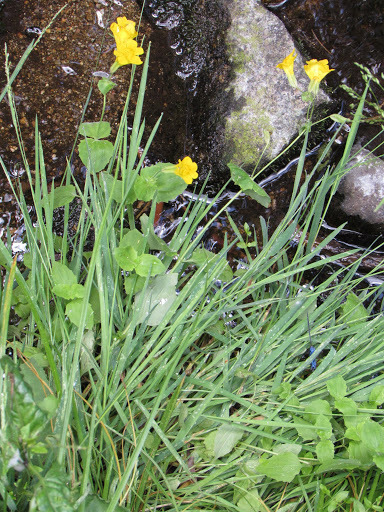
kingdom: Plantae
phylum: Tracheophyta
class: Magnoliopsida
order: Lamiales
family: Phrymaceae
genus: Erythranthe
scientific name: Erythranthe guttata
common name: Monkeyflower
